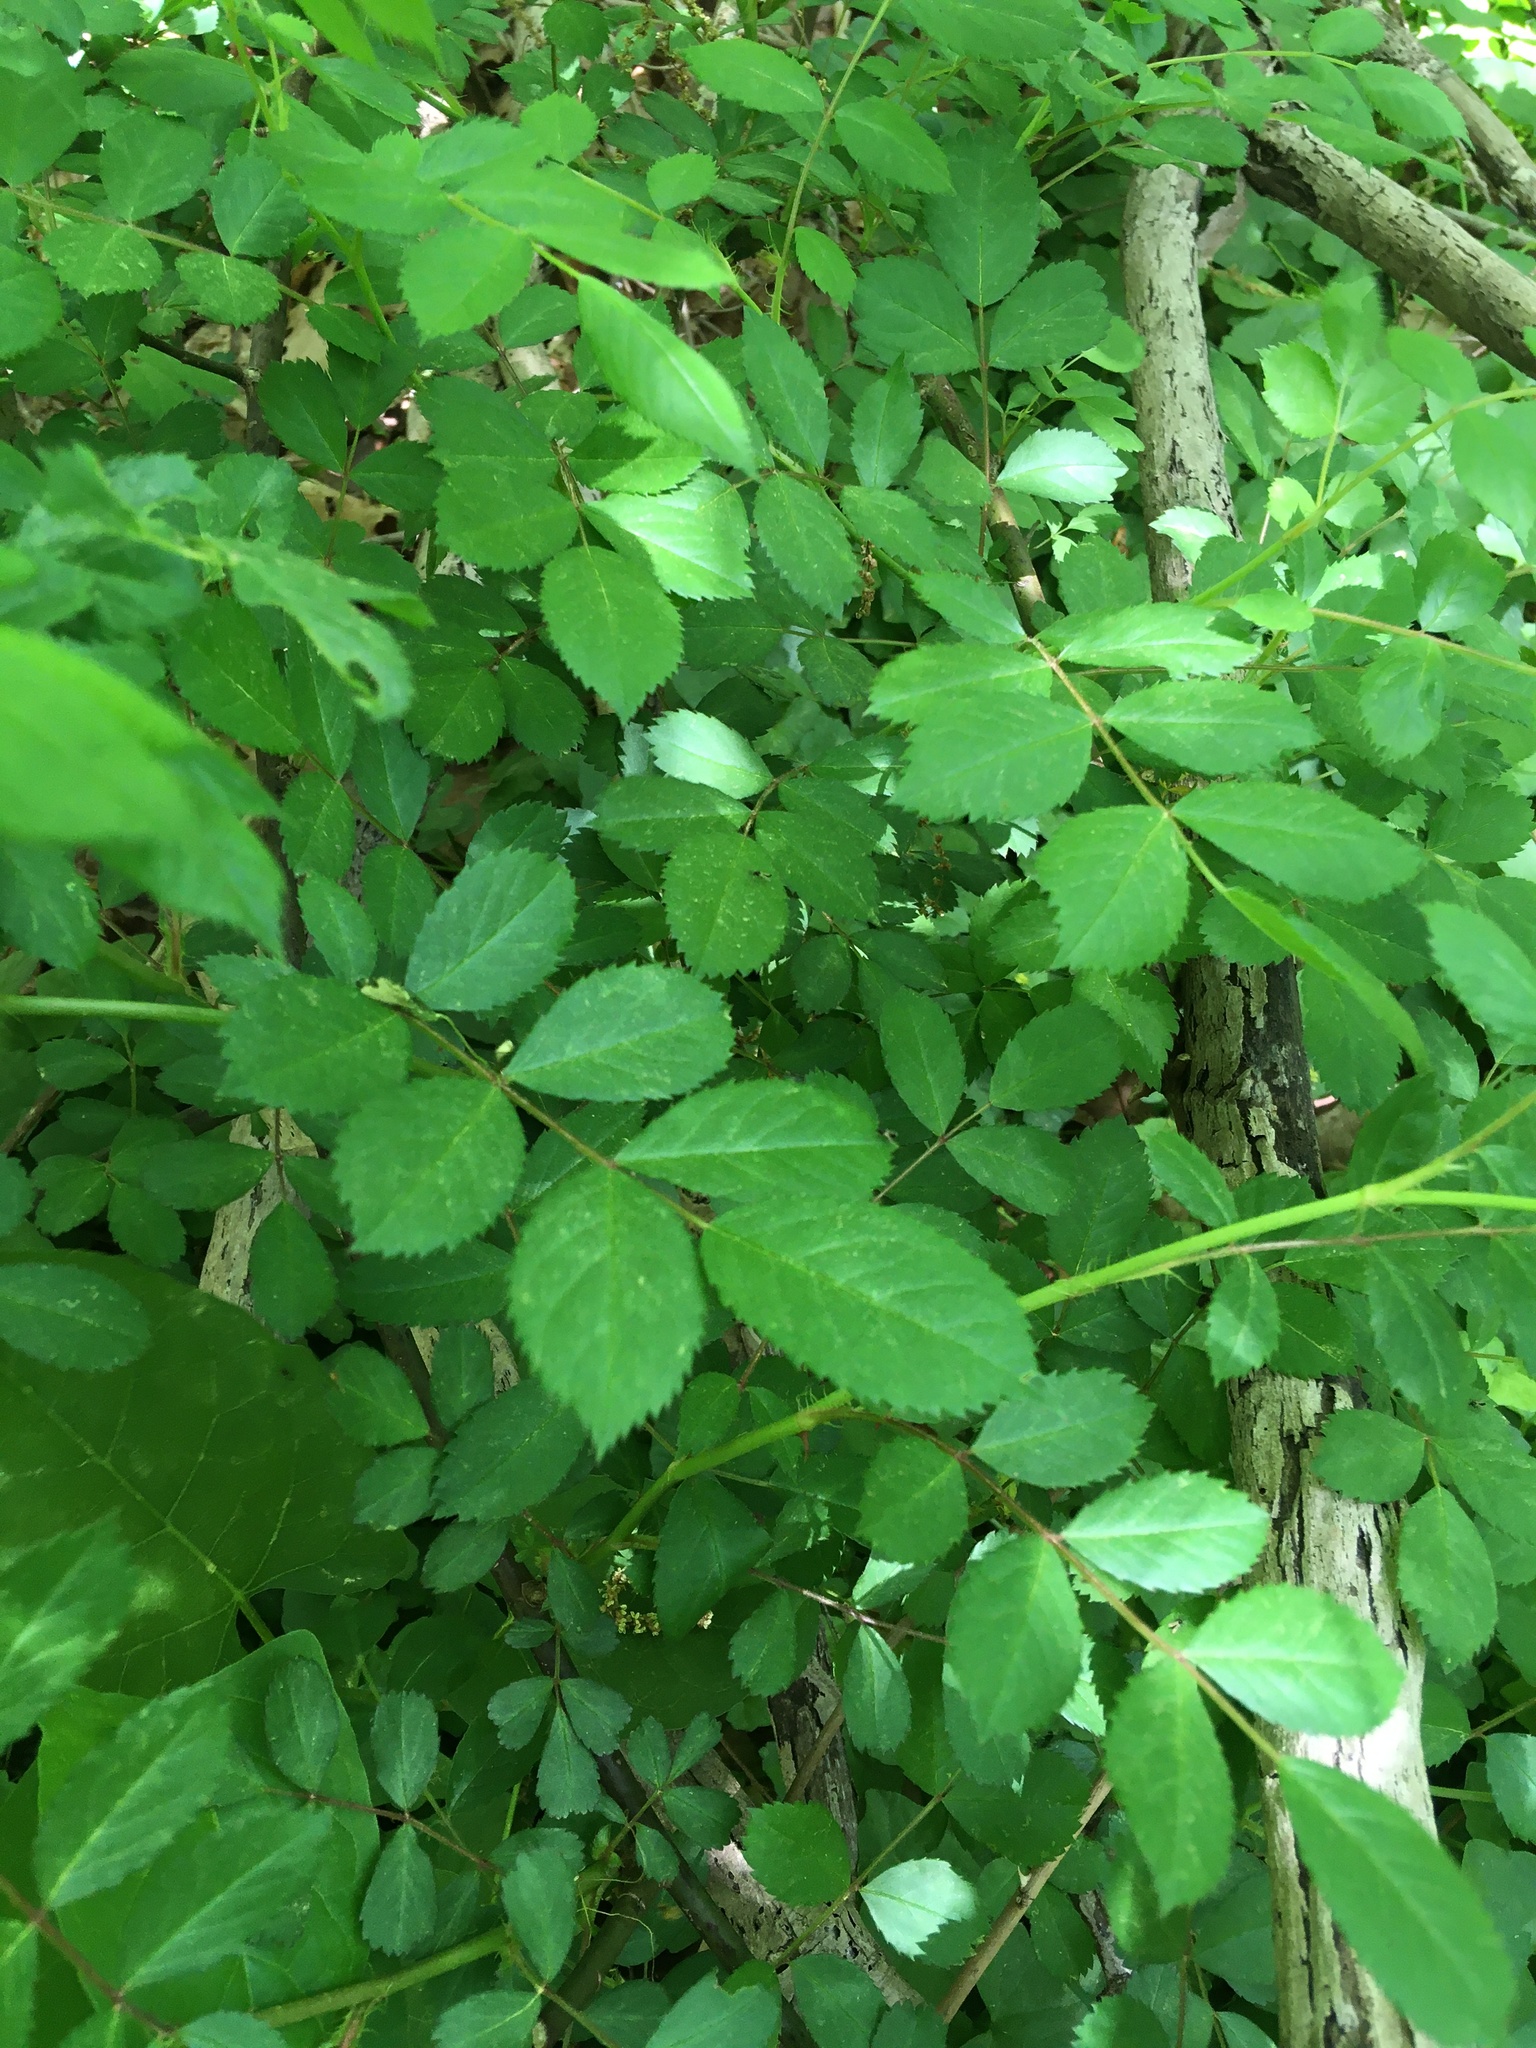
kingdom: Plantae
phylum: Tracheophyta
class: Magnoliopsida
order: Rosales
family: Rosaceae
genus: Rosa
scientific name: Rosa multiflora
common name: Multiflora rose
